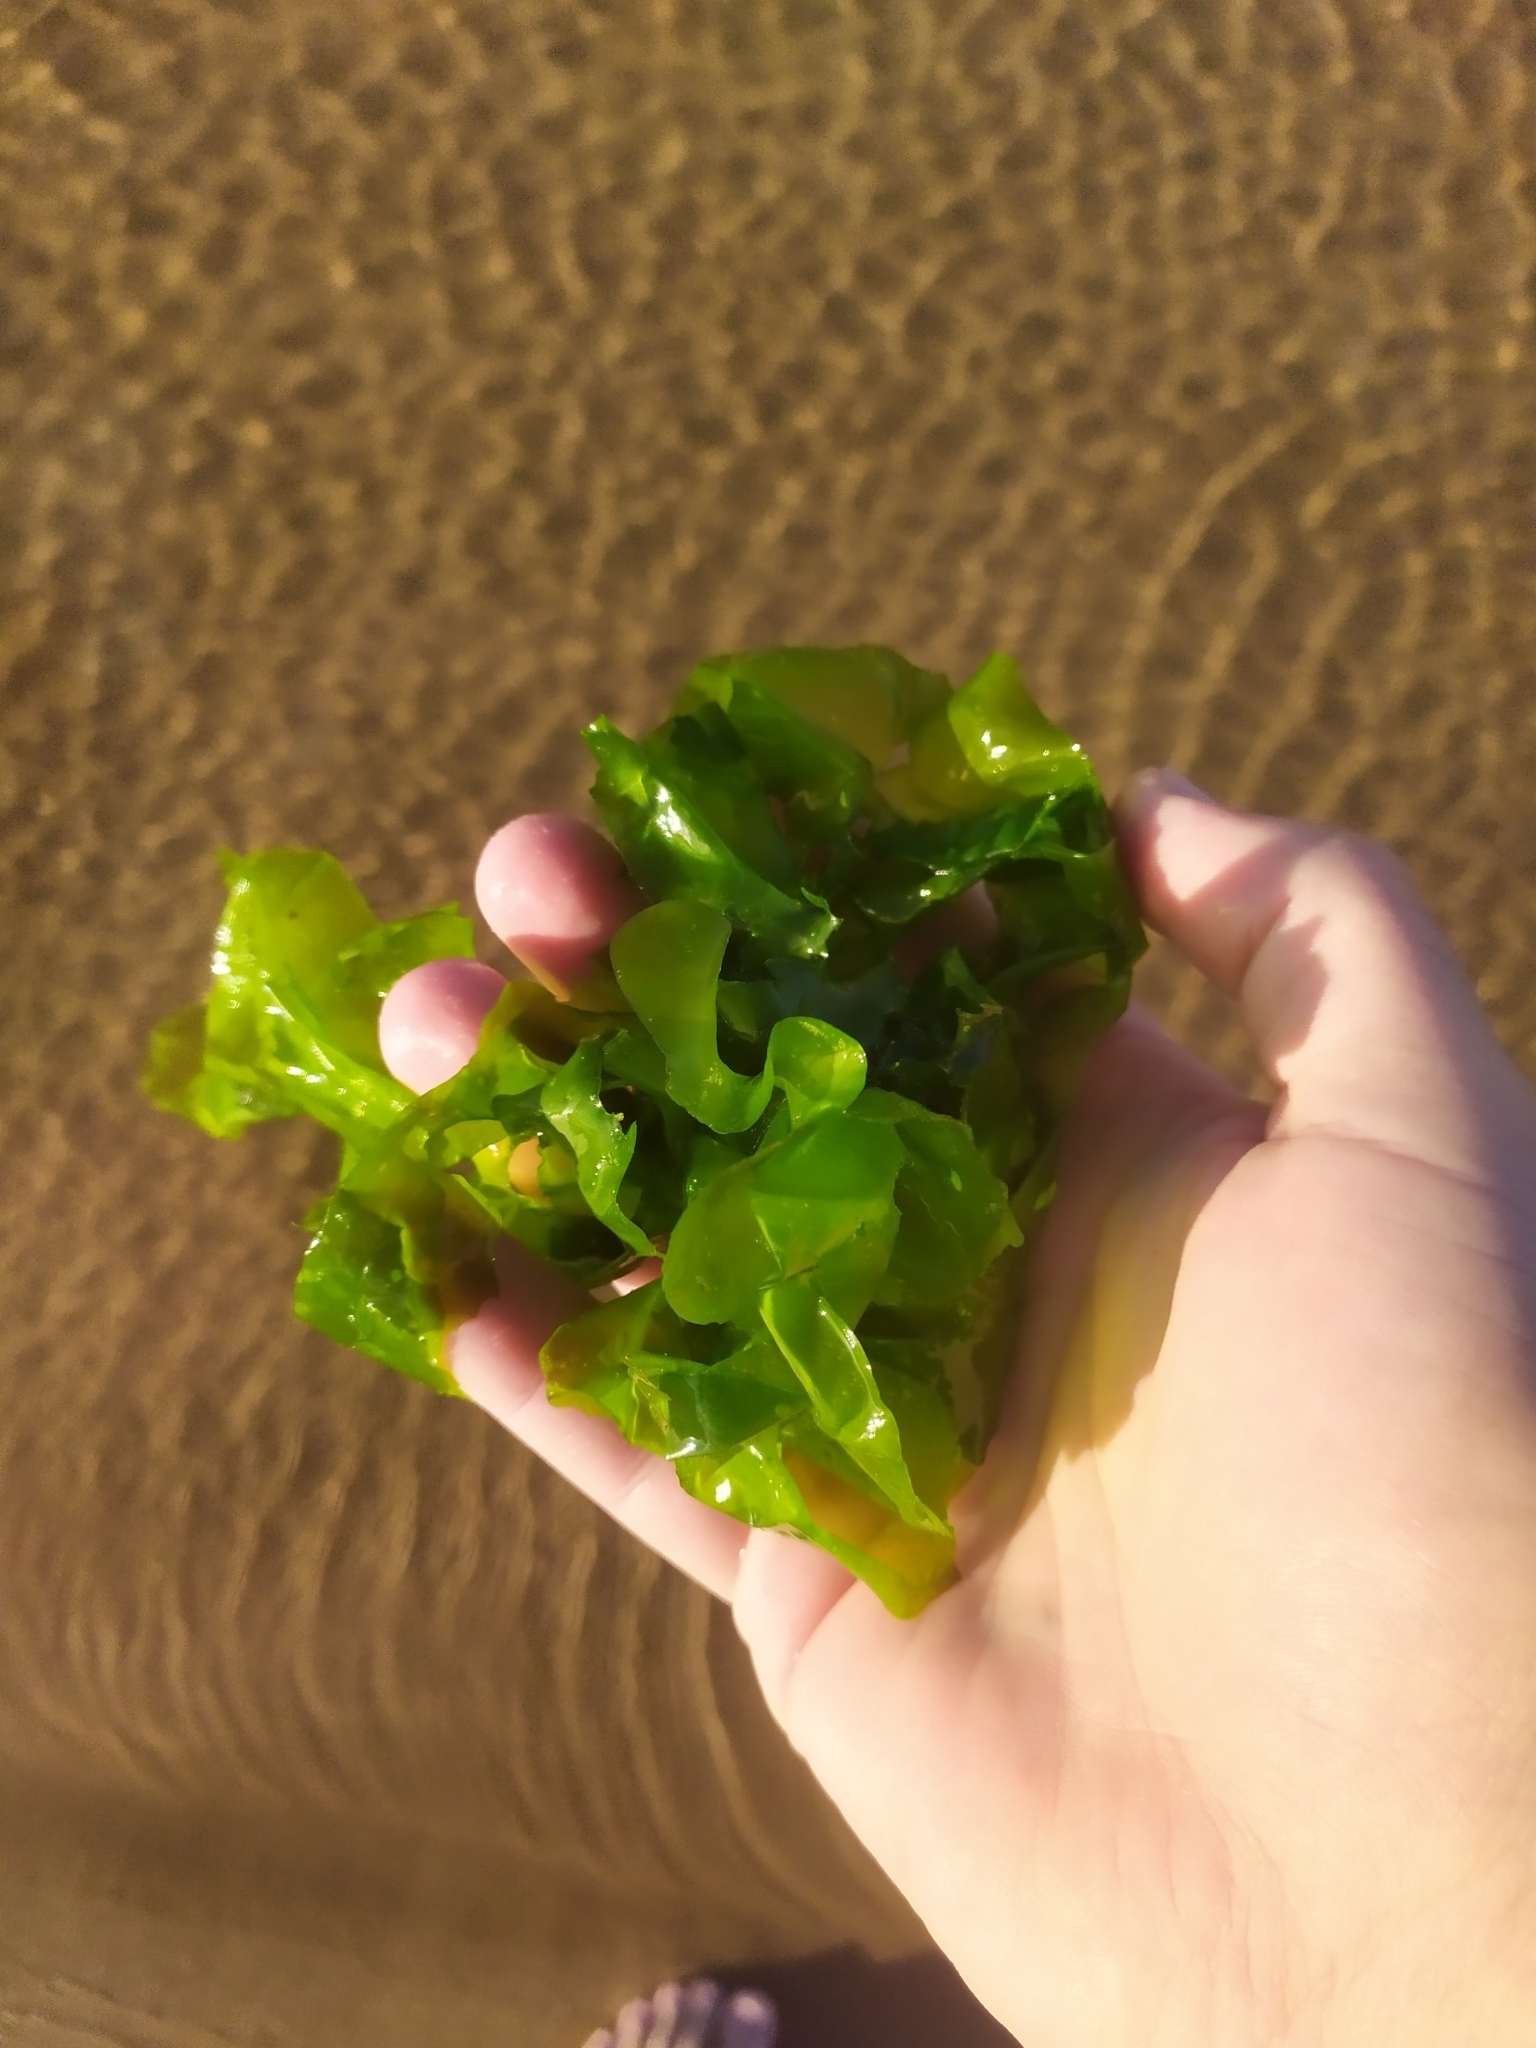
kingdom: Plantae
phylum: Chlorophyta
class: Ulvophyceae
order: Ulvales
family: Ulvaceae
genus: Ulva
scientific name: Ulva lactuca
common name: Sea lettuce
